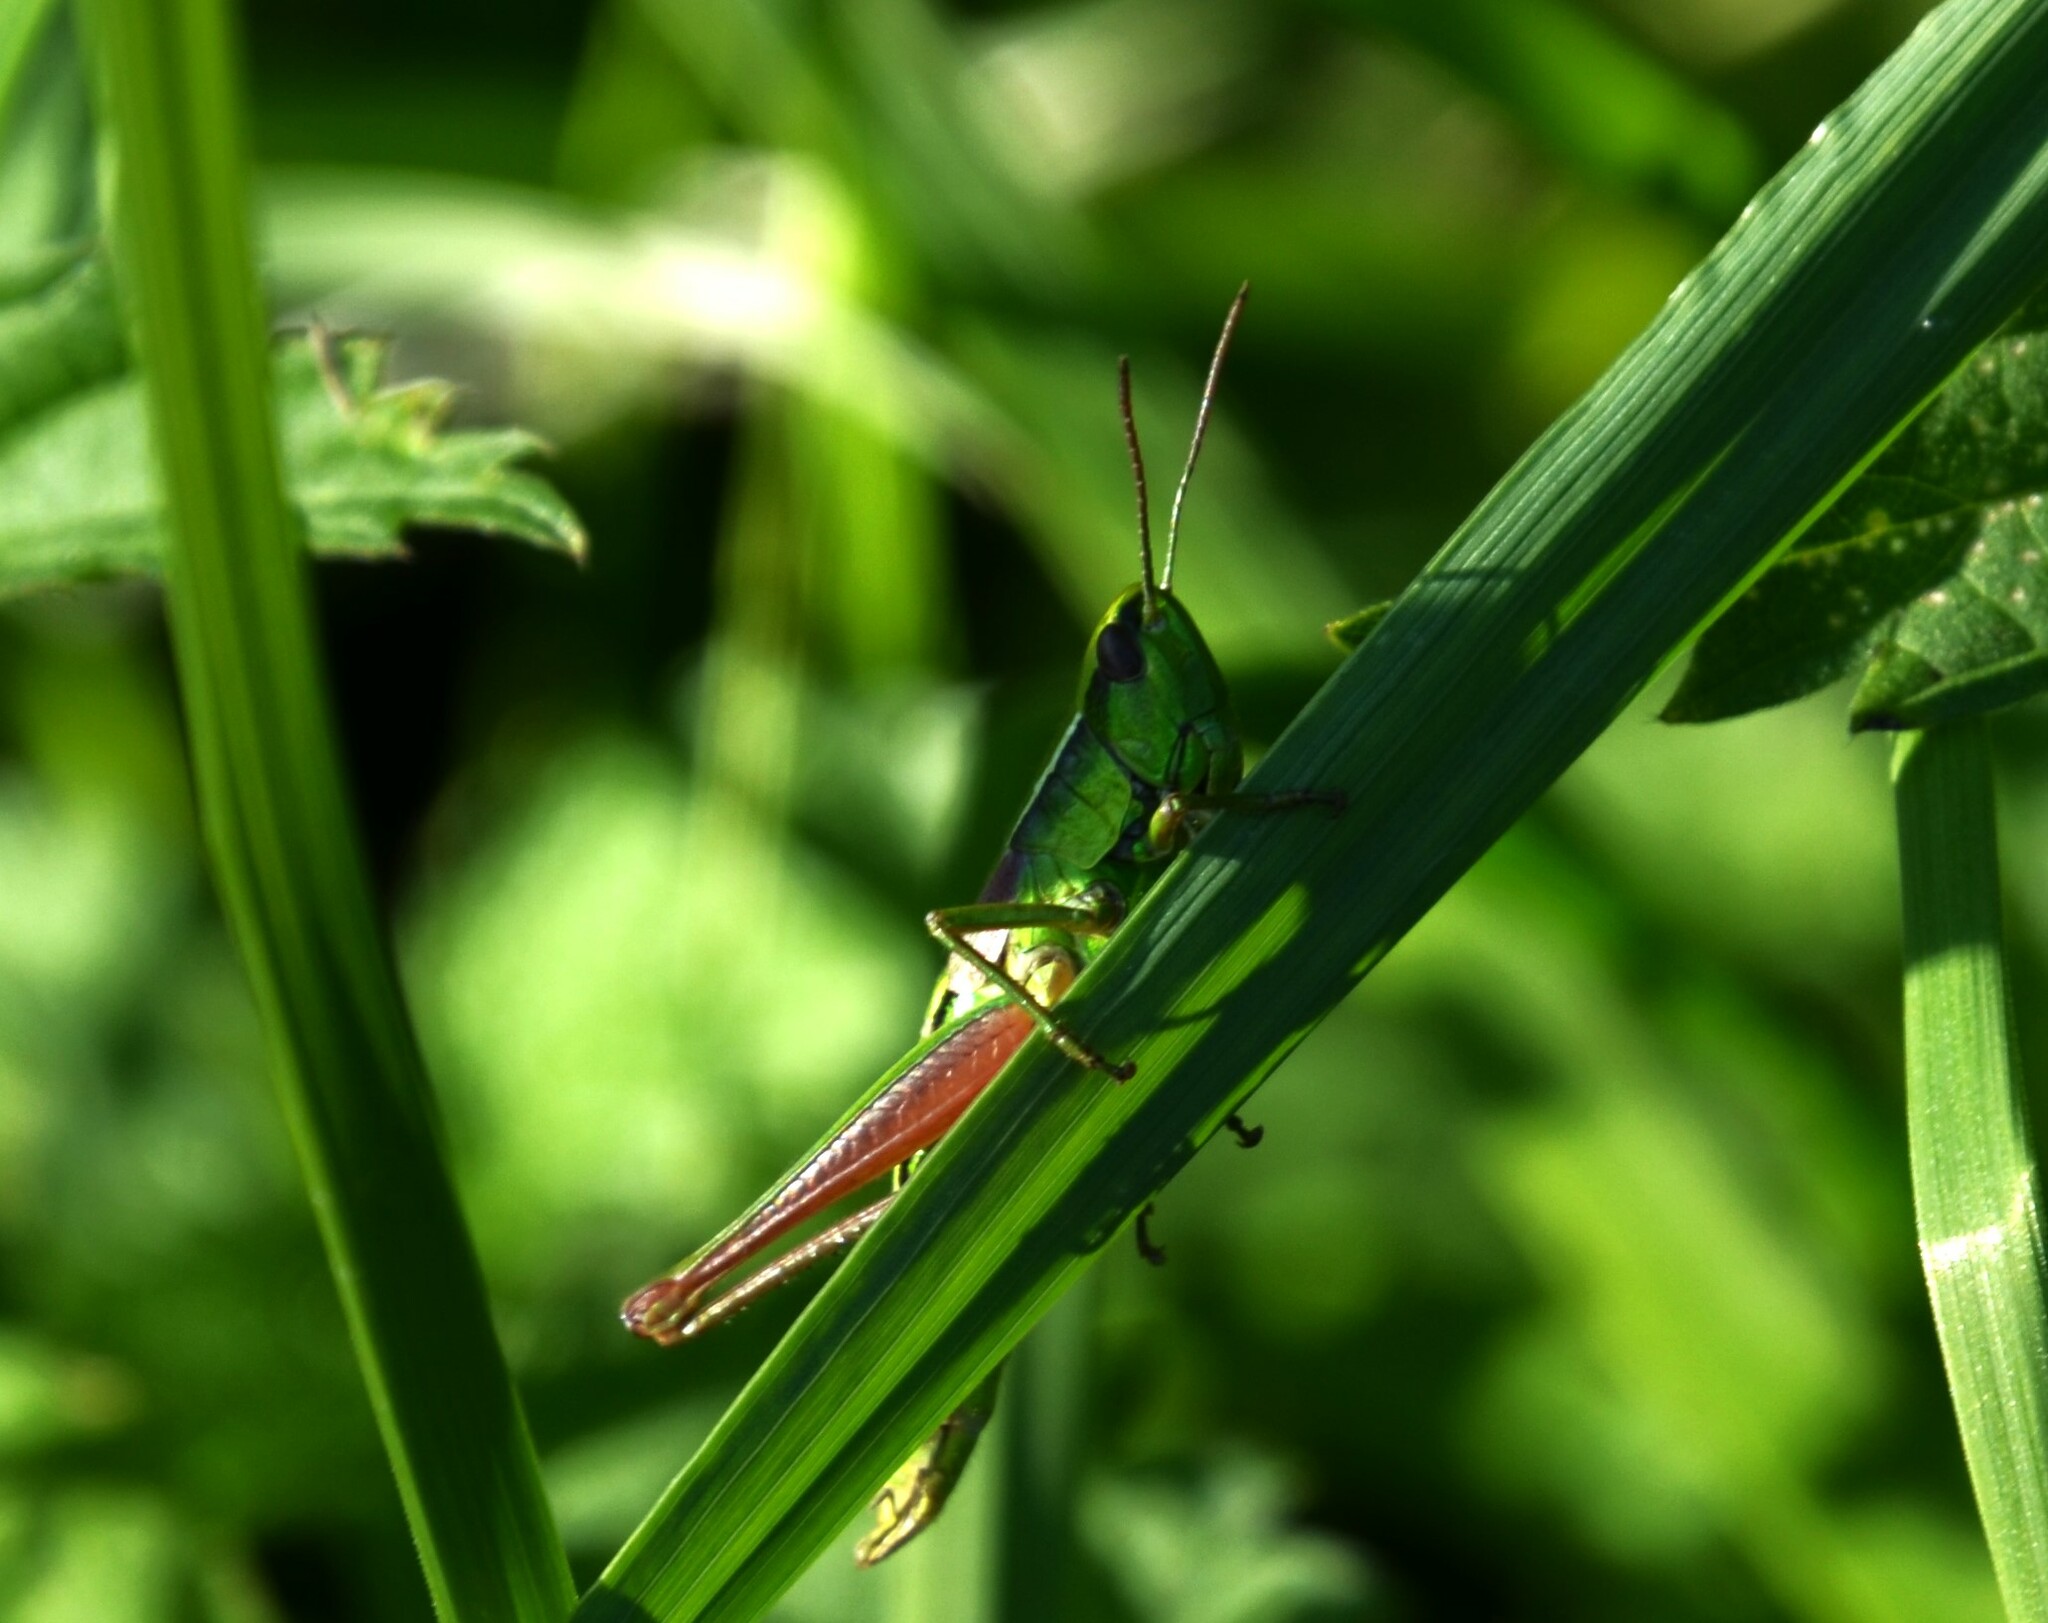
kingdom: Animalia
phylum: Arthropoda
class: Insecta
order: Orthoptera
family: Acrididae
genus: Euthystira
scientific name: Euthystira brachyptera
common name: Small gold grasshopper
